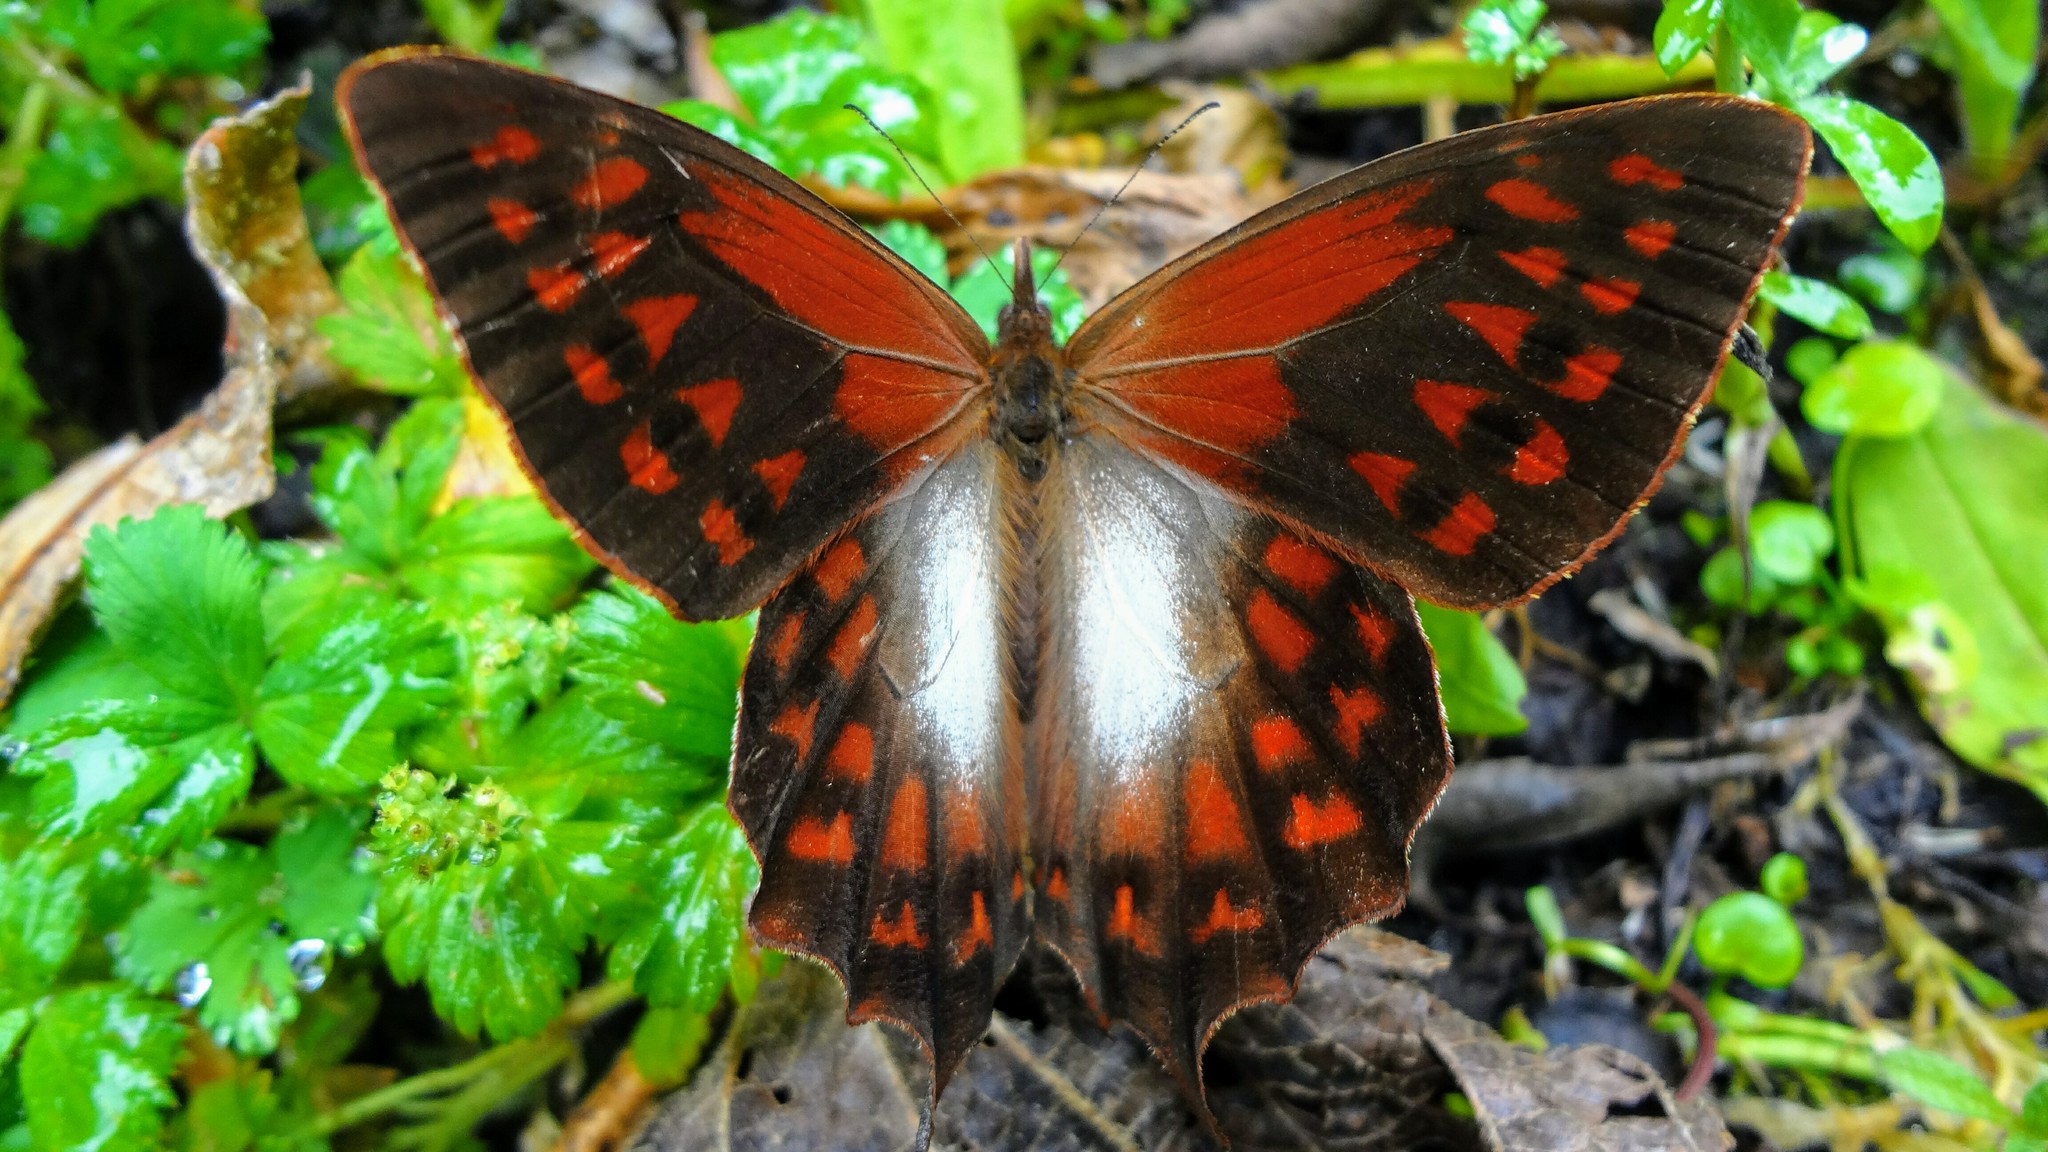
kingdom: Animalia
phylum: Arthropoda
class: Insecta
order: Lepidoptera
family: Nymphalidae
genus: Lasiophila
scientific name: Lasiophila cirta
